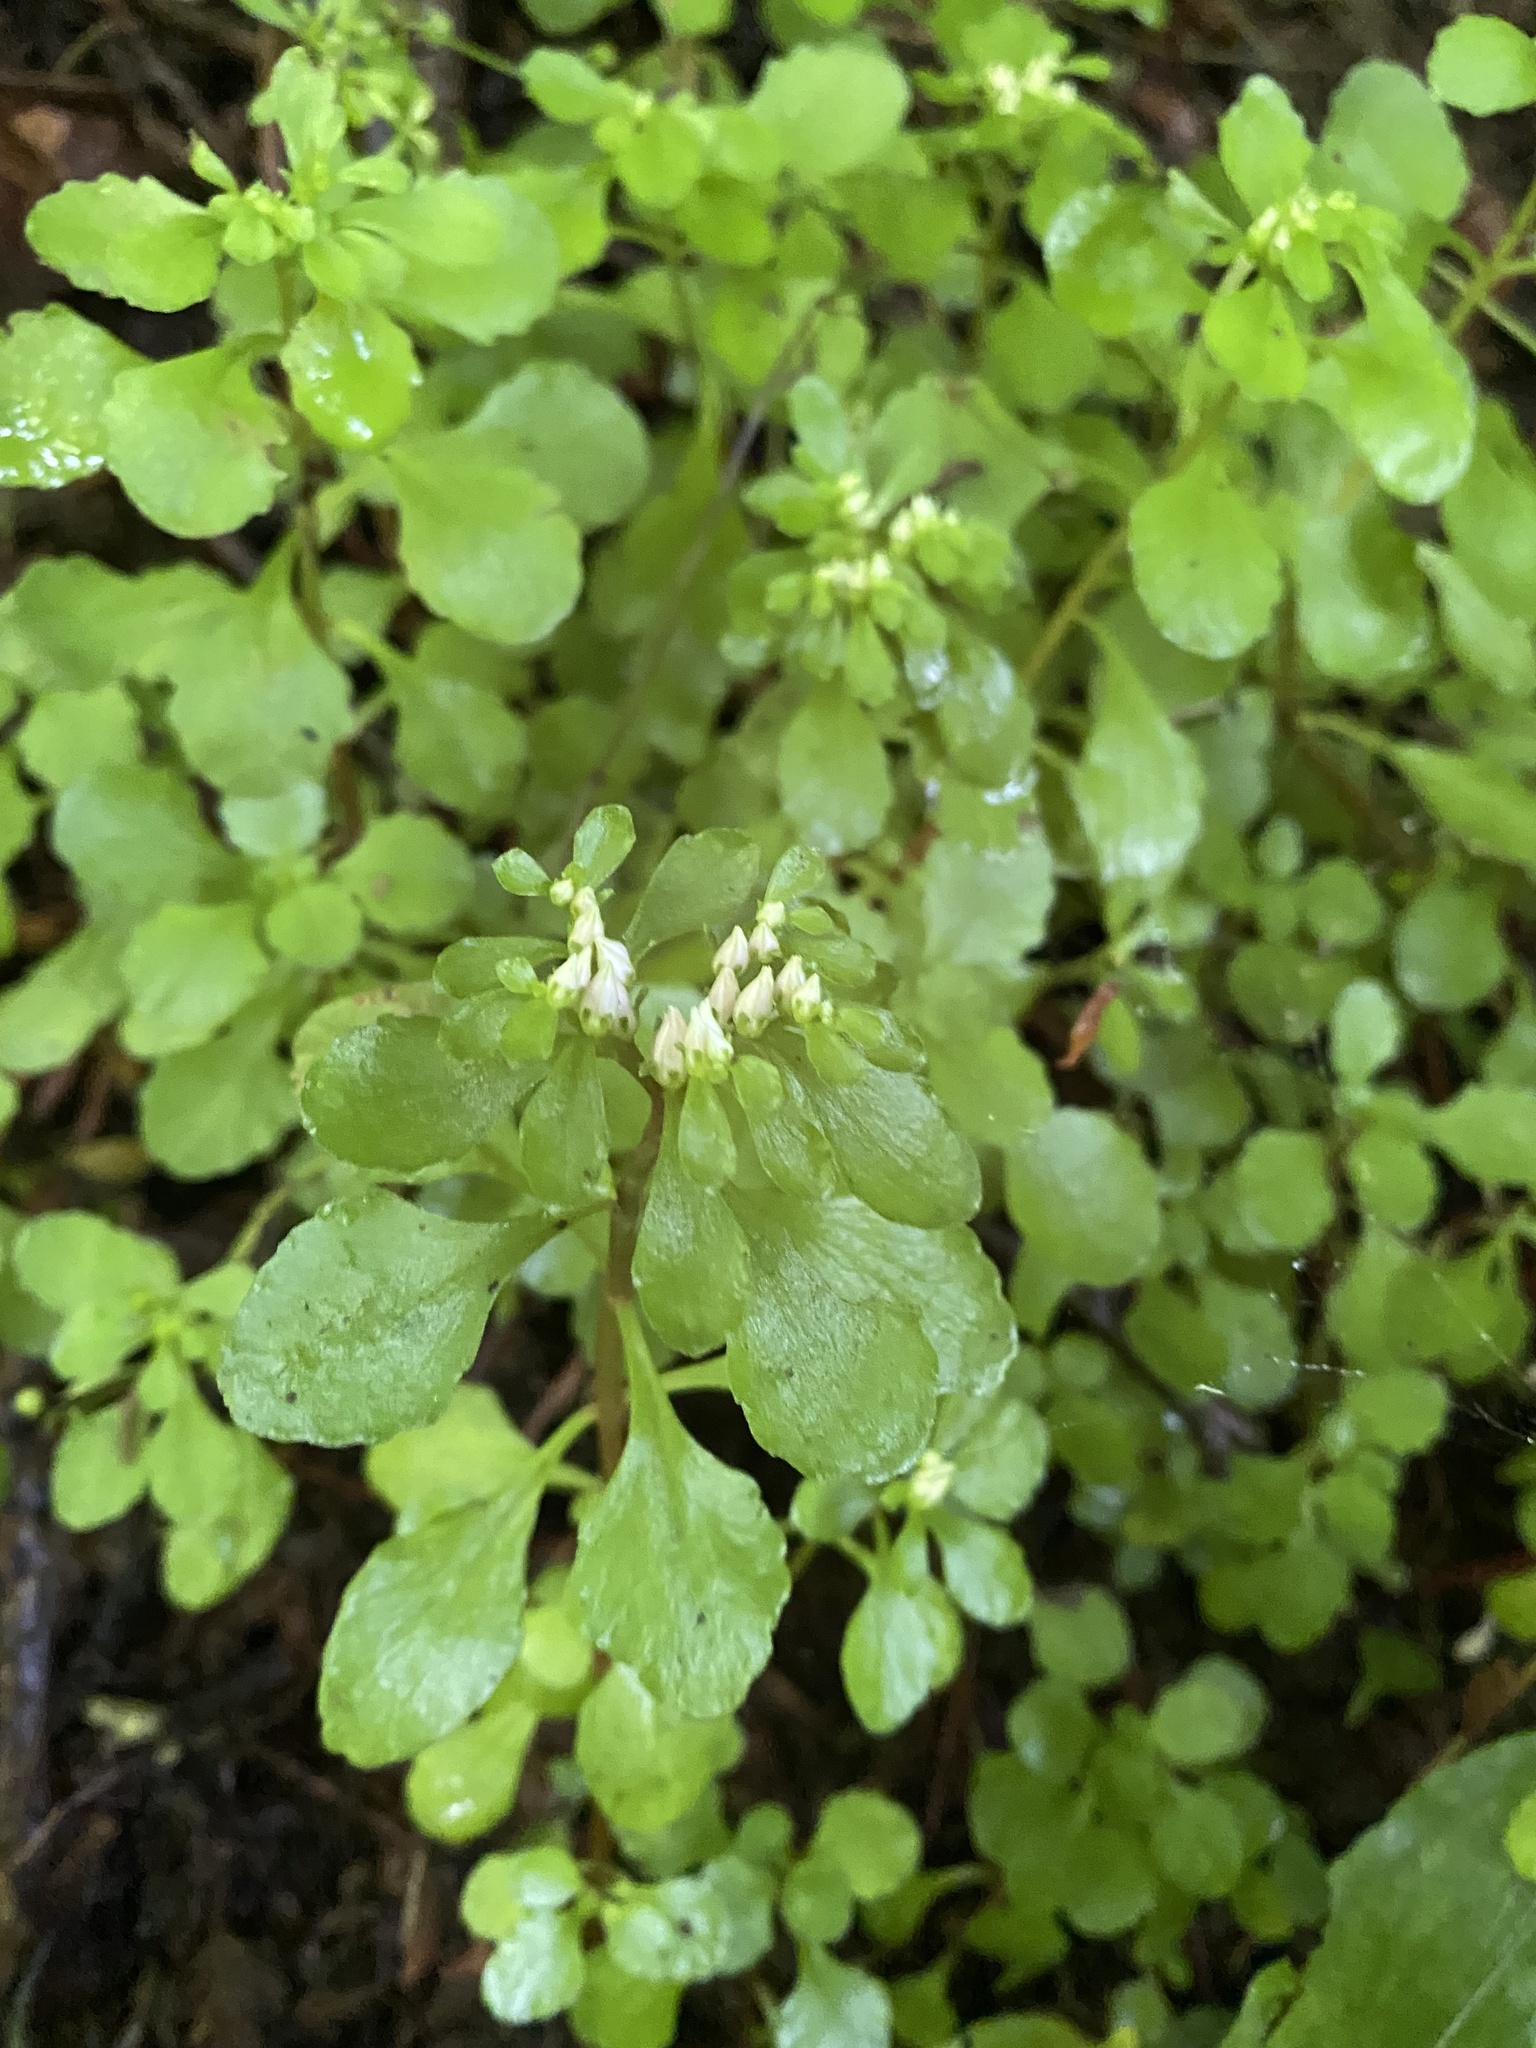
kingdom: Plantae
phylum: Tracheophyta
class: Magnoliopsida
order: Saxifragales
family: Crassulaceae
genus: Phedimus
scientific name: Phedimus stolonifer
